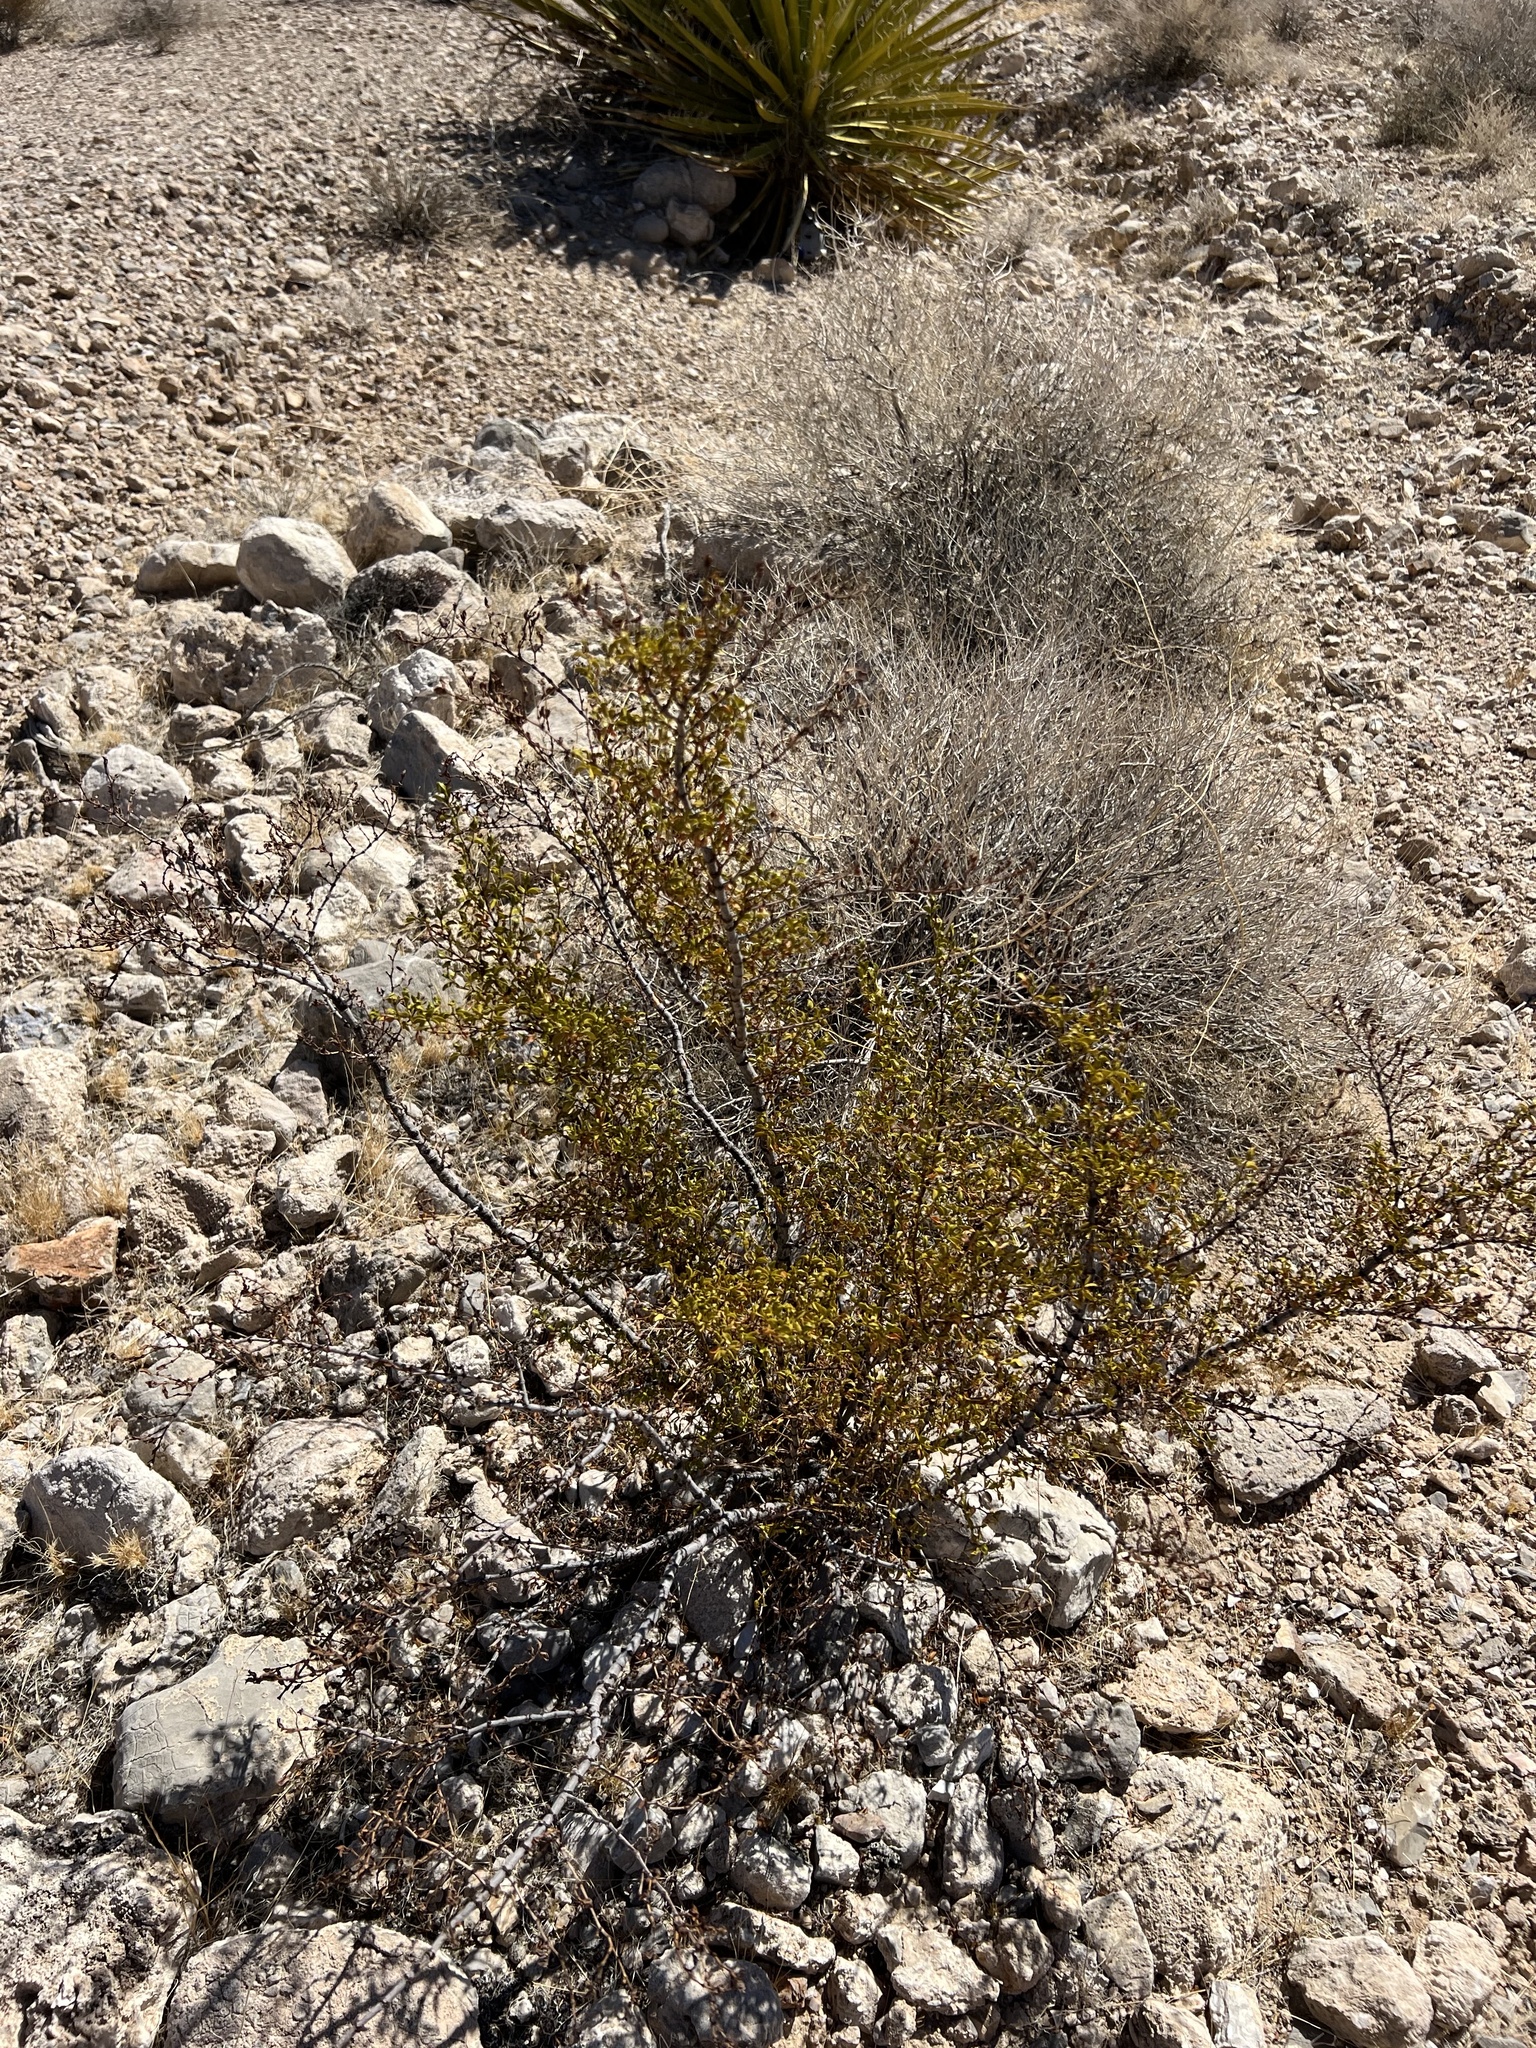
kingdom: Plantae
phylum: Tracheophyta
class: Magnoliopsida
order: Zygophyllales
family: Zygophyllaceae
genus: Larrea
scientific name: Larrea tridentata
